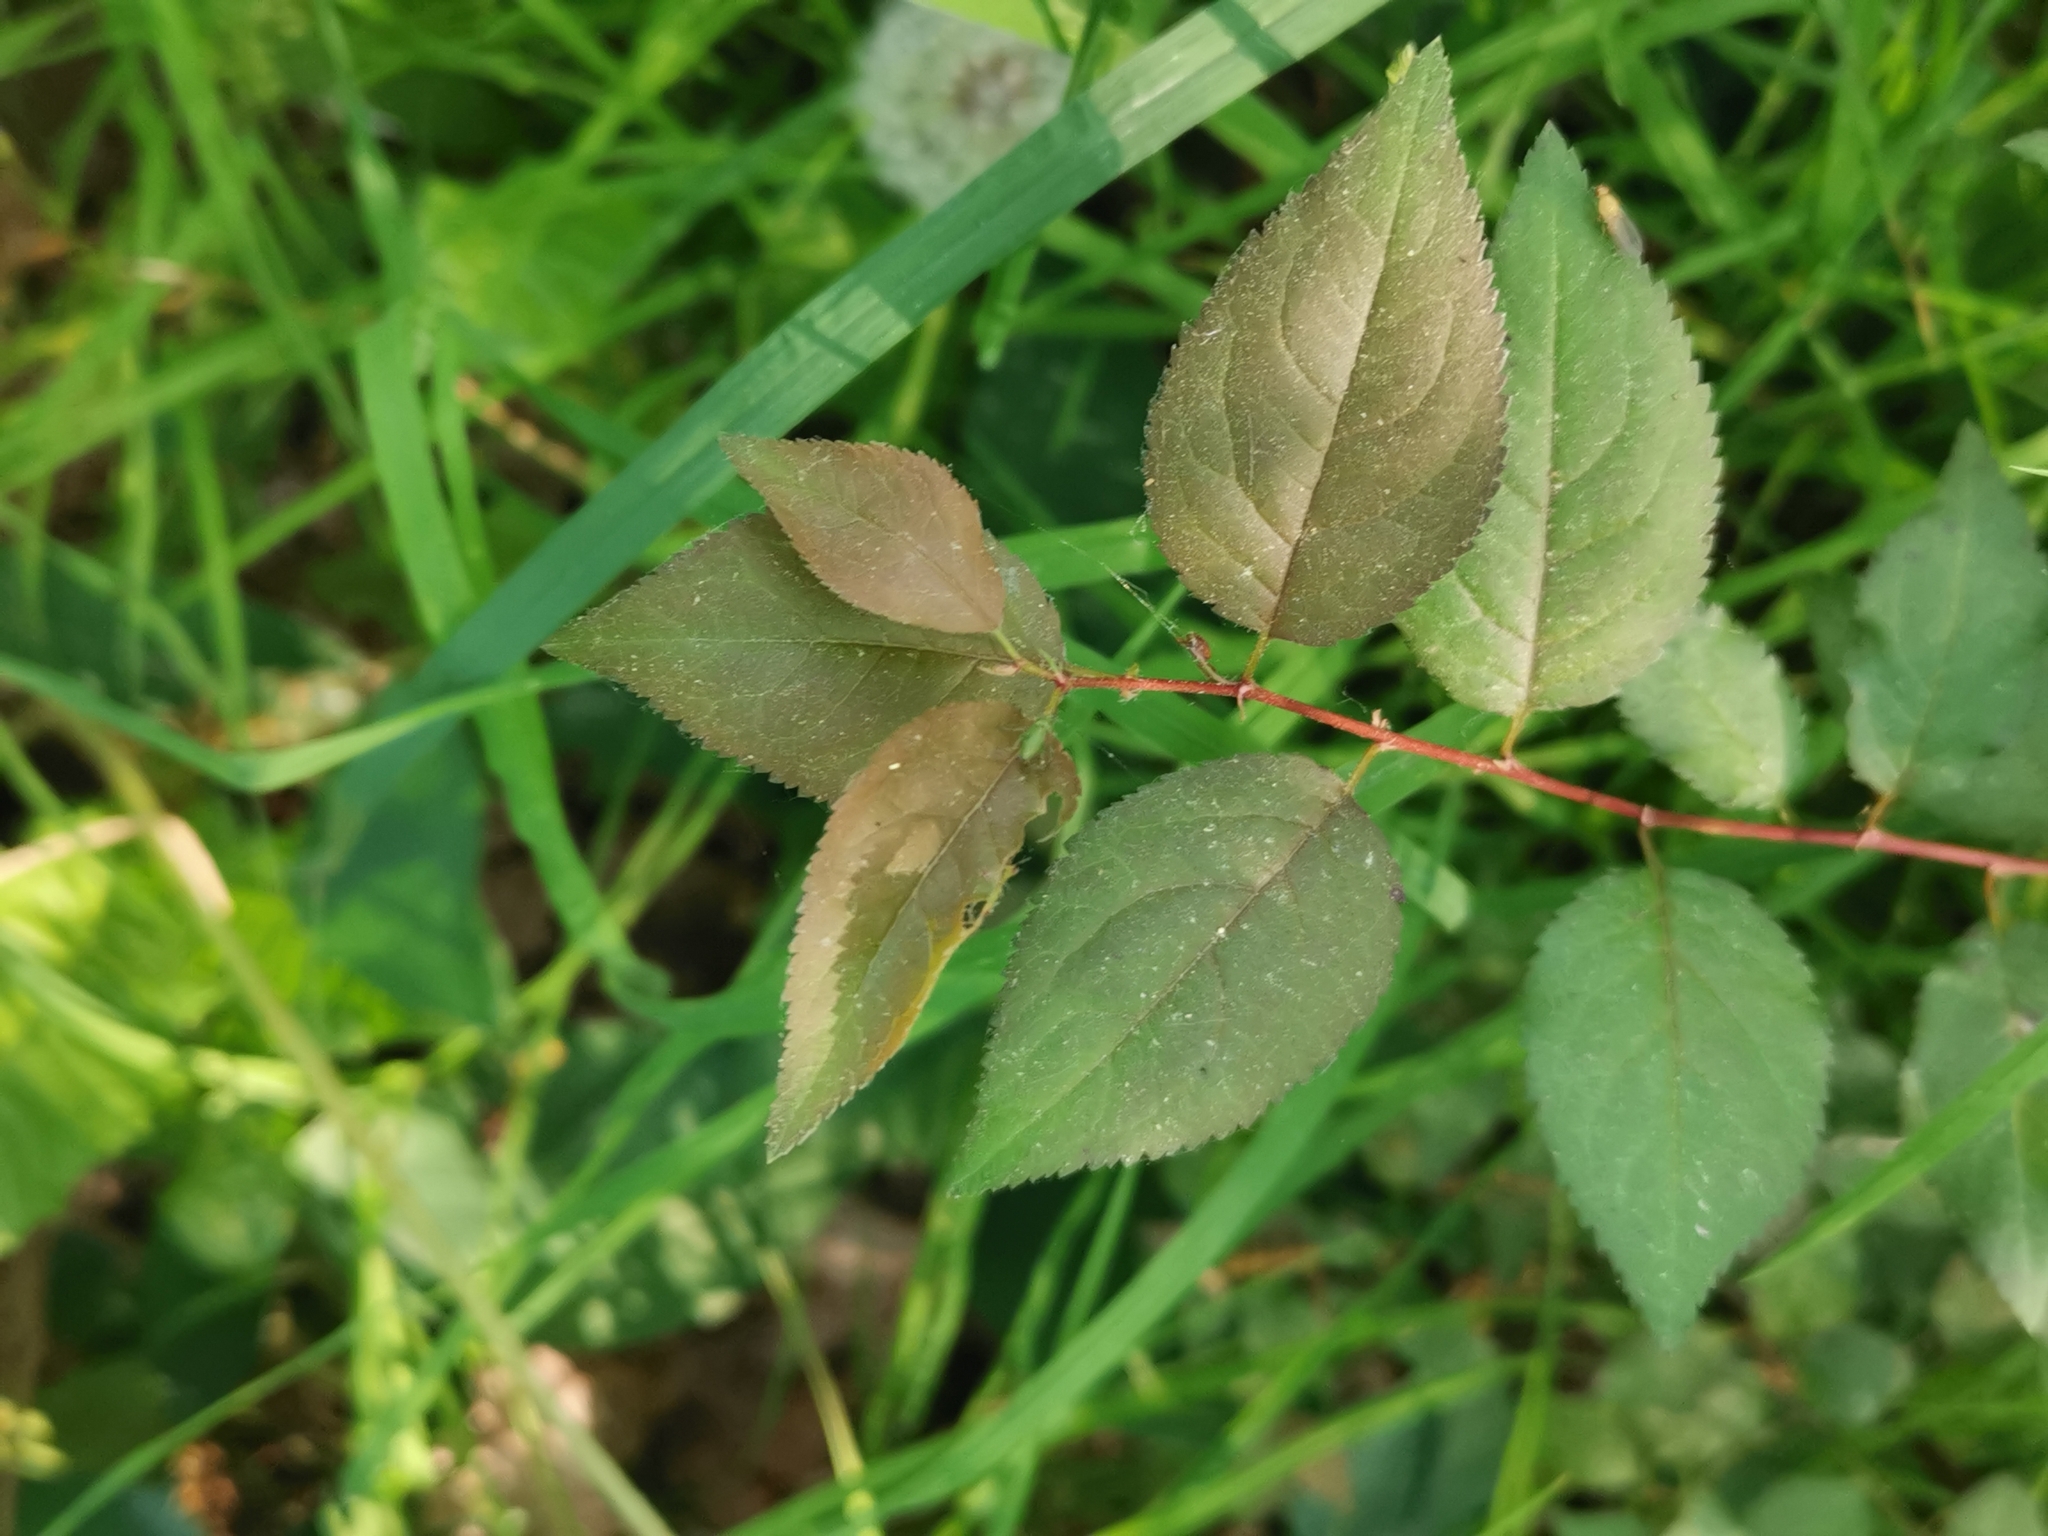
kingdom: Plantae
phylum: Tracheophyta
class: Magnoliopsida
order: Rosales
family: Rosaceae
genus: Prunus
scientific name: Prunus cerasifera
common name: Cherry plum
